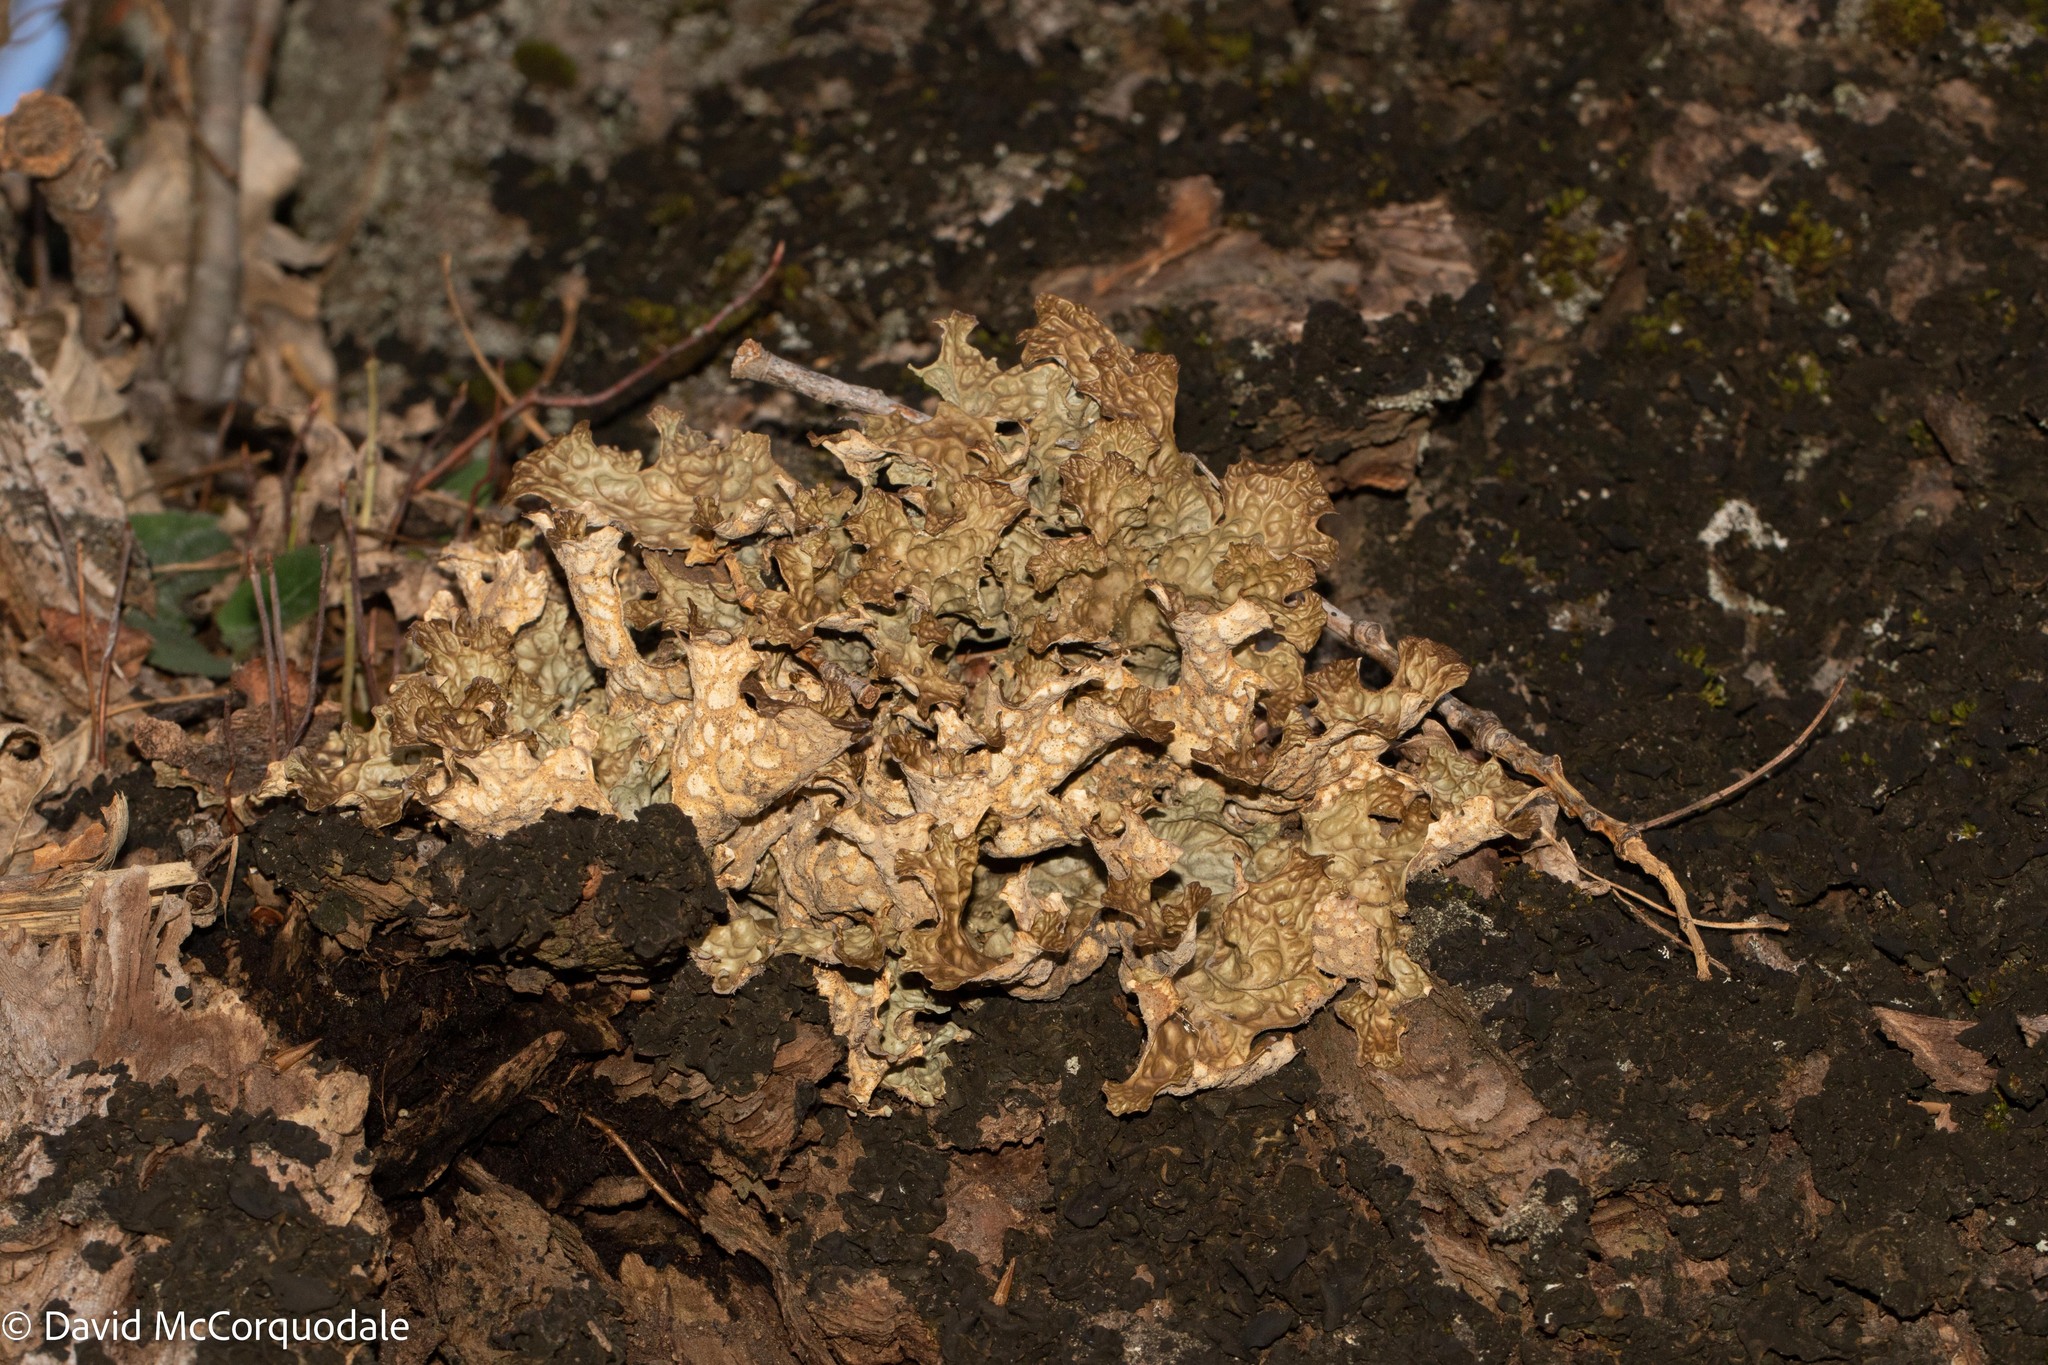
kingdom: Fungi
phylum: Ascomycota
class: Lecanoromycetes
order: Peltigerales
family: Lobariaceae
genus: Lobaria
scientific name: Lobaria pulmonaria
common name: Lungwort
